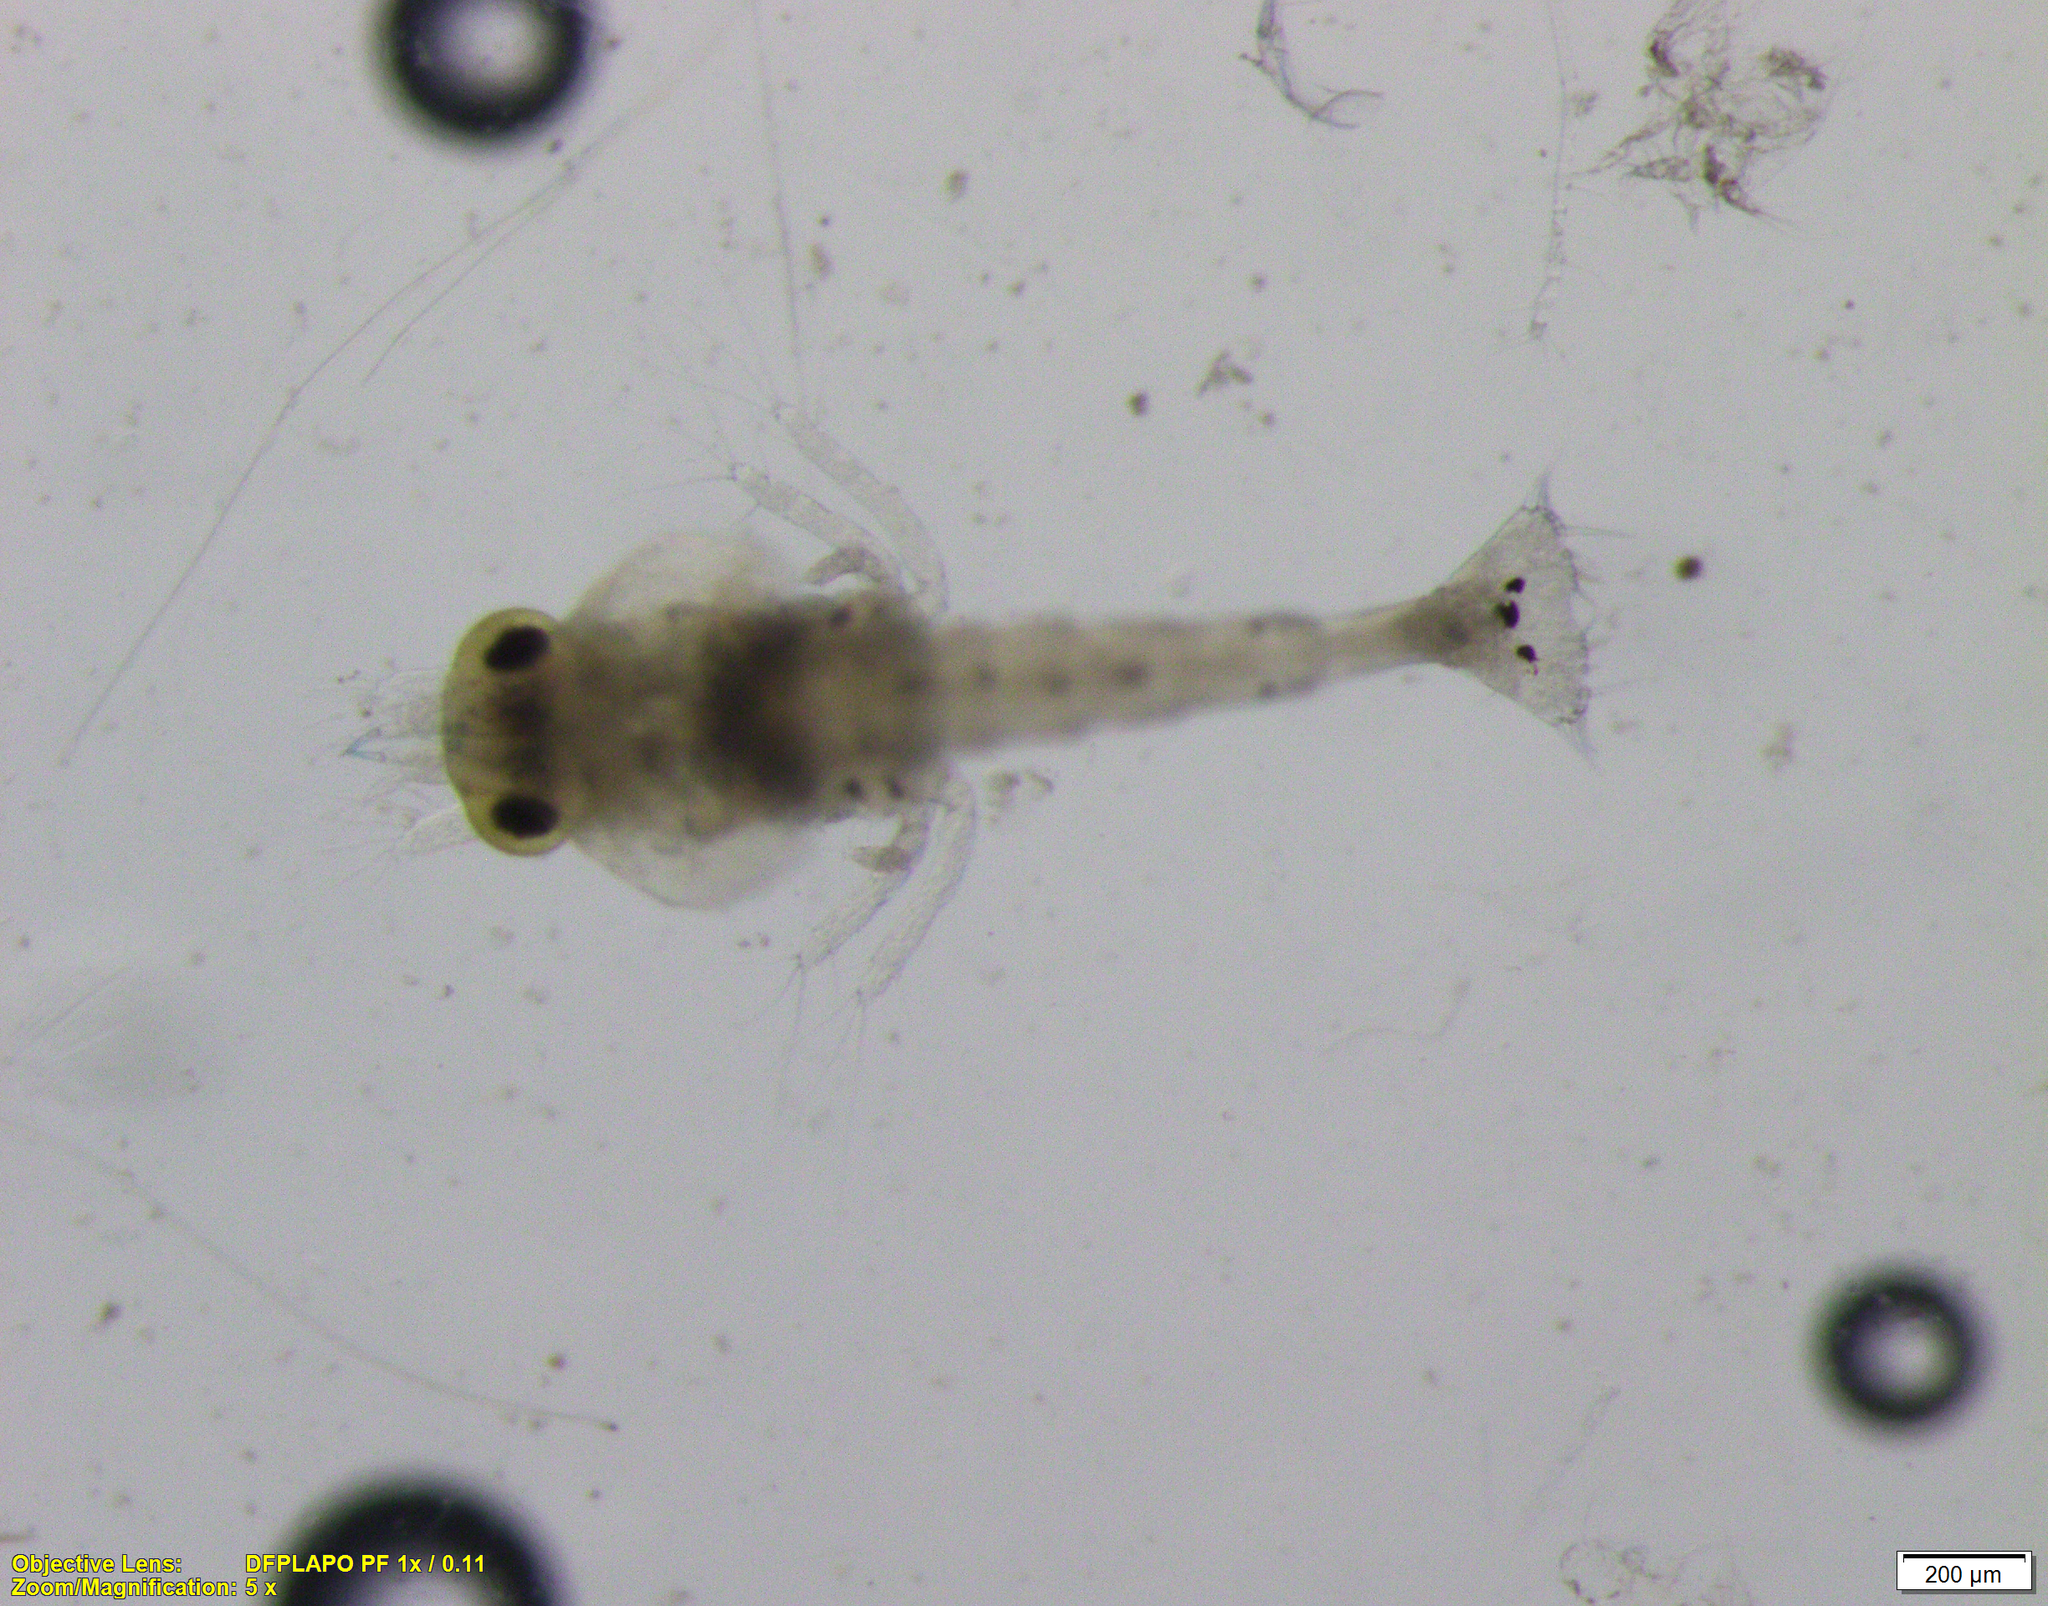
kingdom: Animalia
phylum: Arthropoda
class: Malacostraca
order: Decapoda
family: Crangonidae
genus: Crangon
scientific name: Crangon septemspinosa
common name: Bail shrimp
